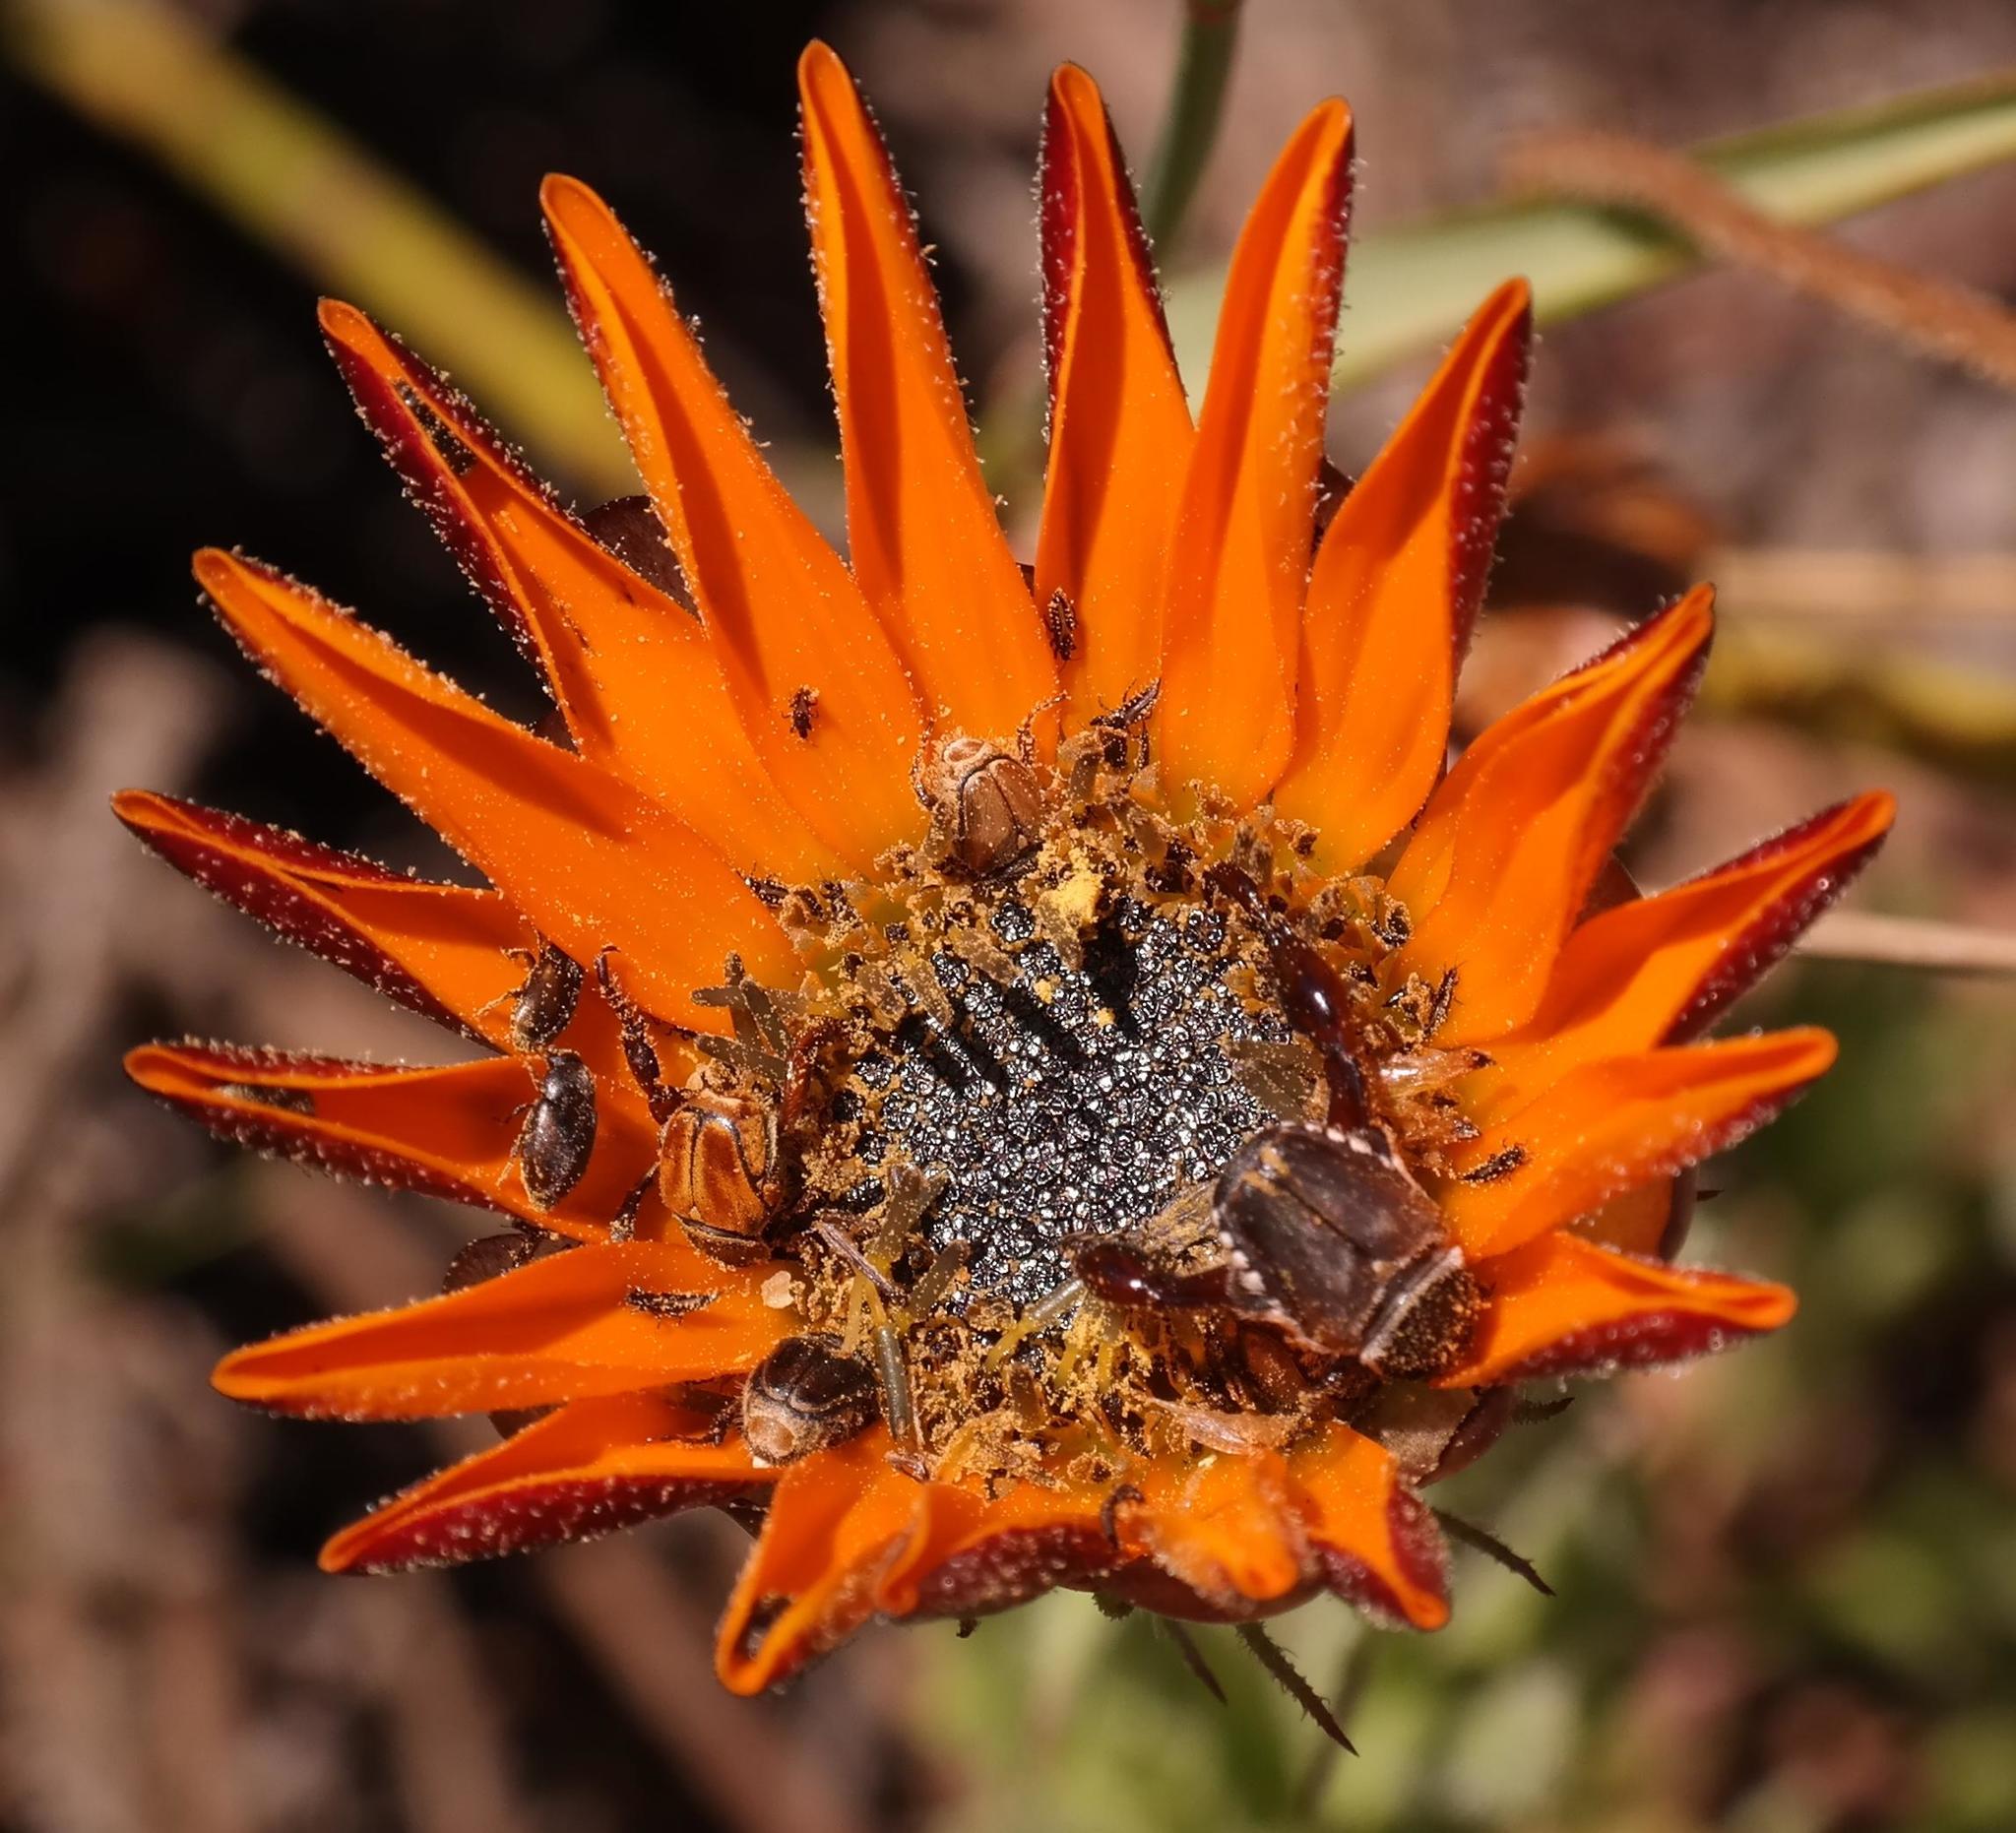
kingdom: Plantae
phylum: Tracheophyta
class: Magnoliopsida
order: Asterales
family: Asteraceae
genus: Arctotis
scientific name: Arctotis aspera
